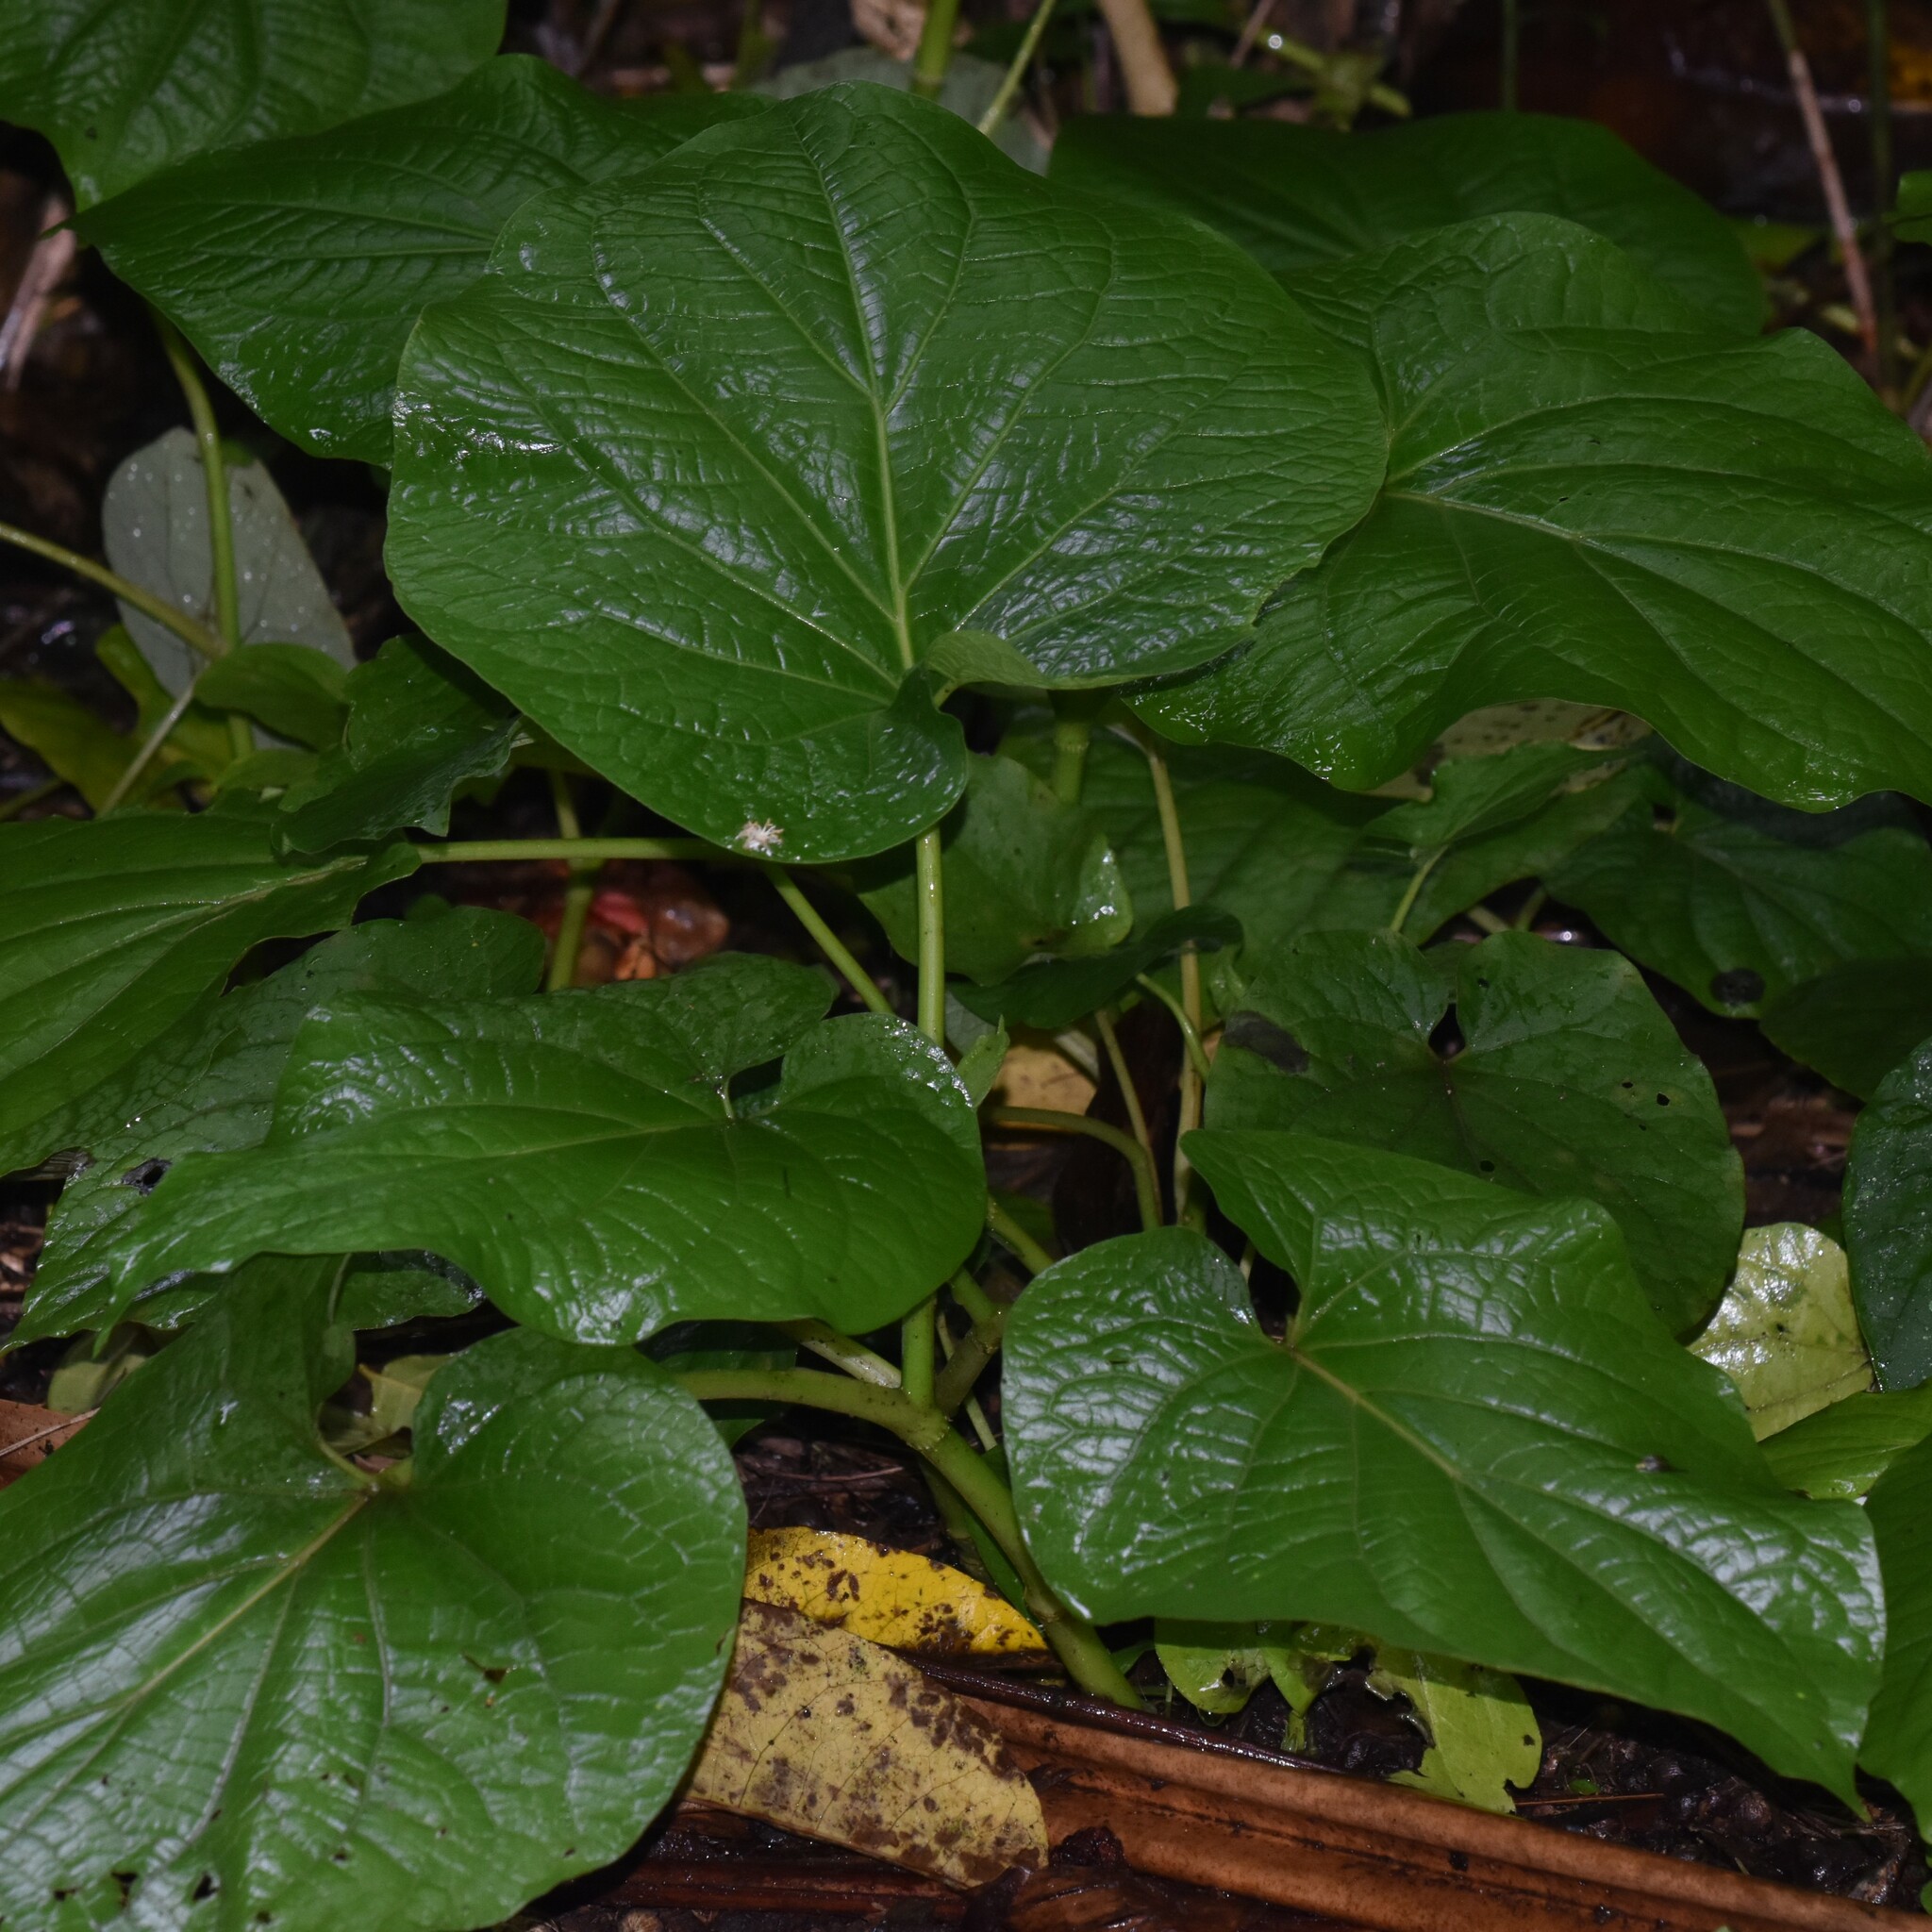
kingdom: Plantae
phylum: Tracheophyta
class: Magnoliopsida
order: Piperales
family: Piperaceae
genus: Piper
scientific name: Piper auritum
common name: Vera cruz pepper
